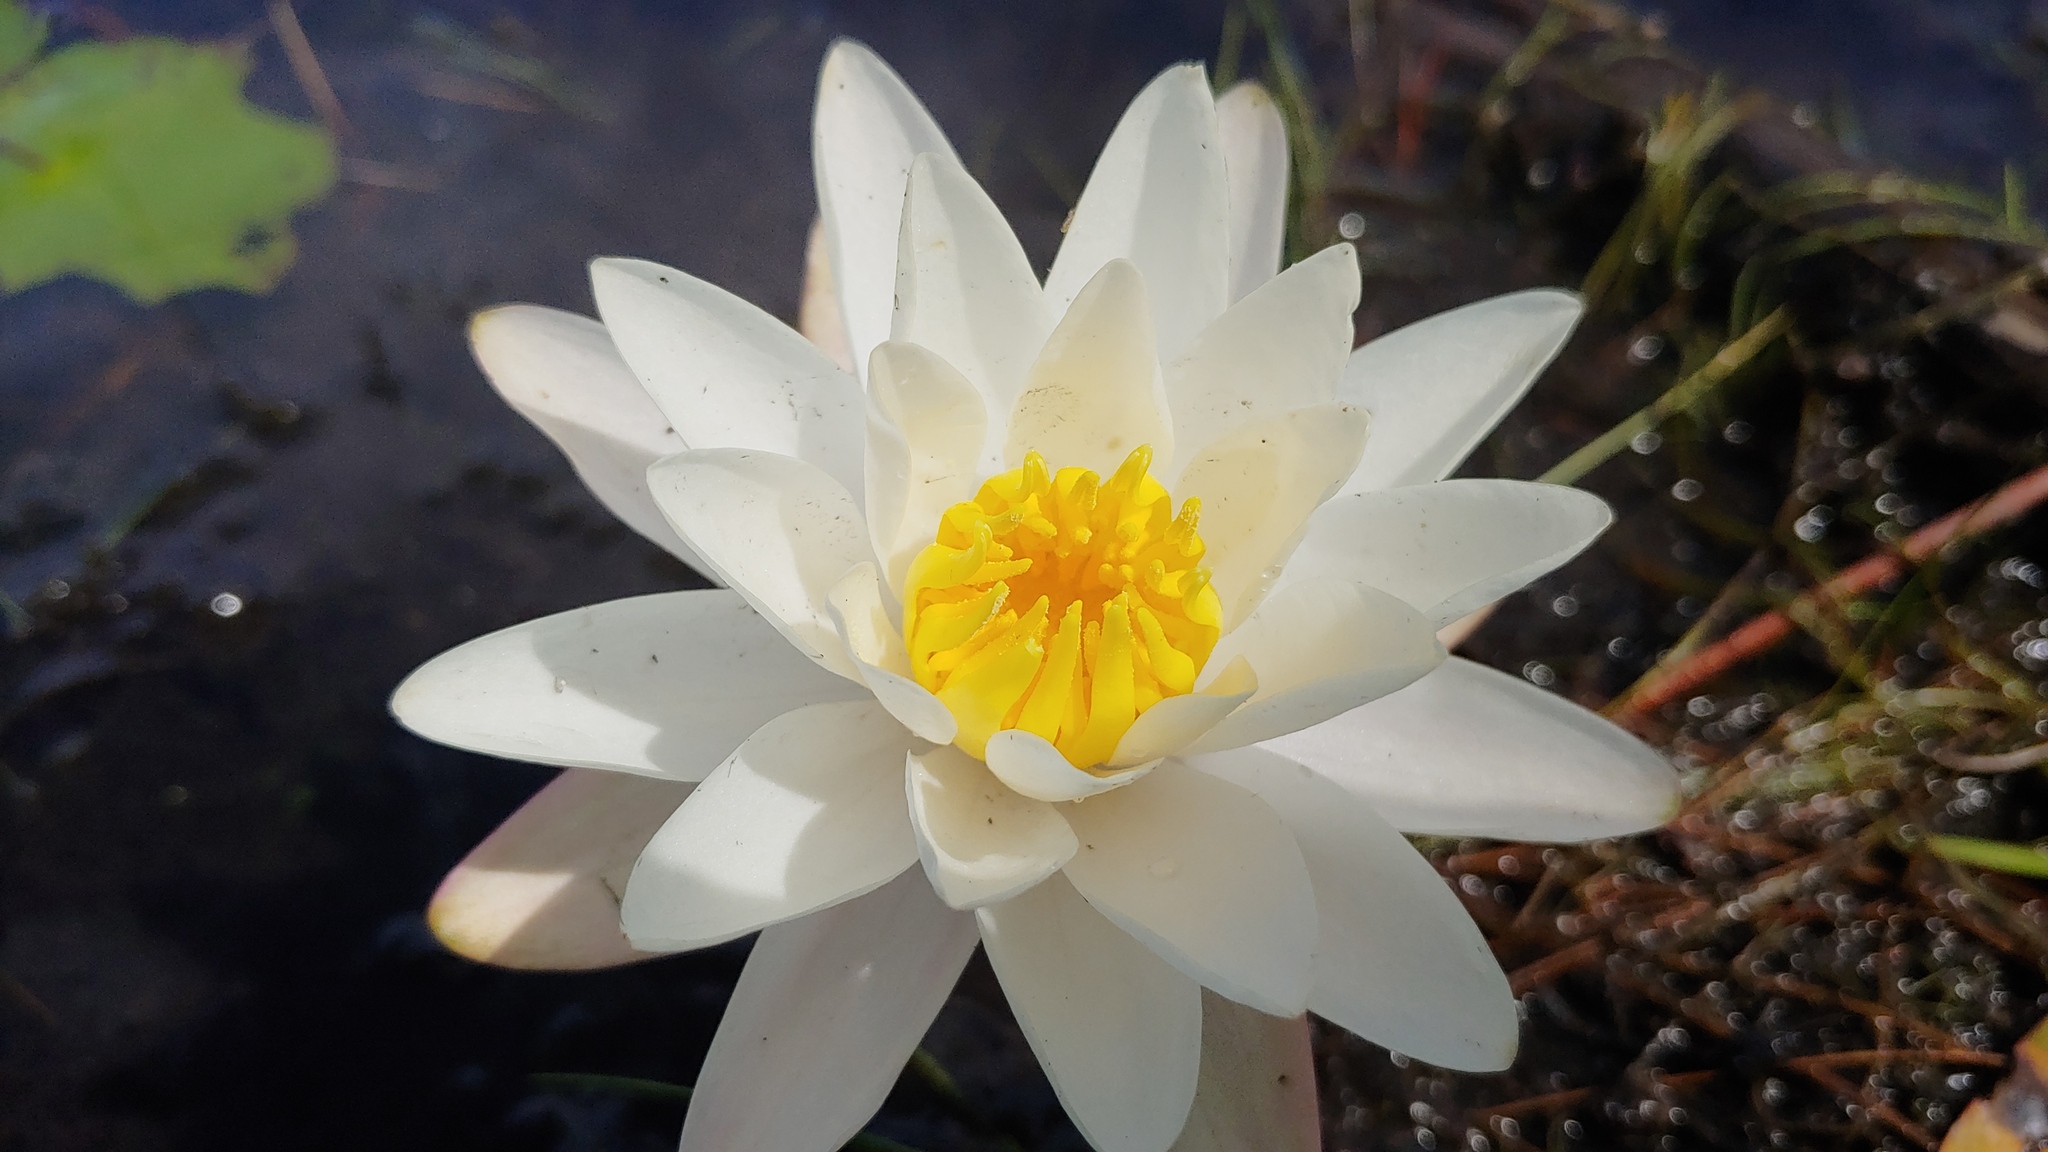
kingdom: Plantae
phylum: Tracheophyta
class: Magnoliopsida
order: Nymphaeales
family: Nymphaeaceae
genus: Nymphaea
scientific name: Nymphaea odorata
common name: Fragrant water-lily
